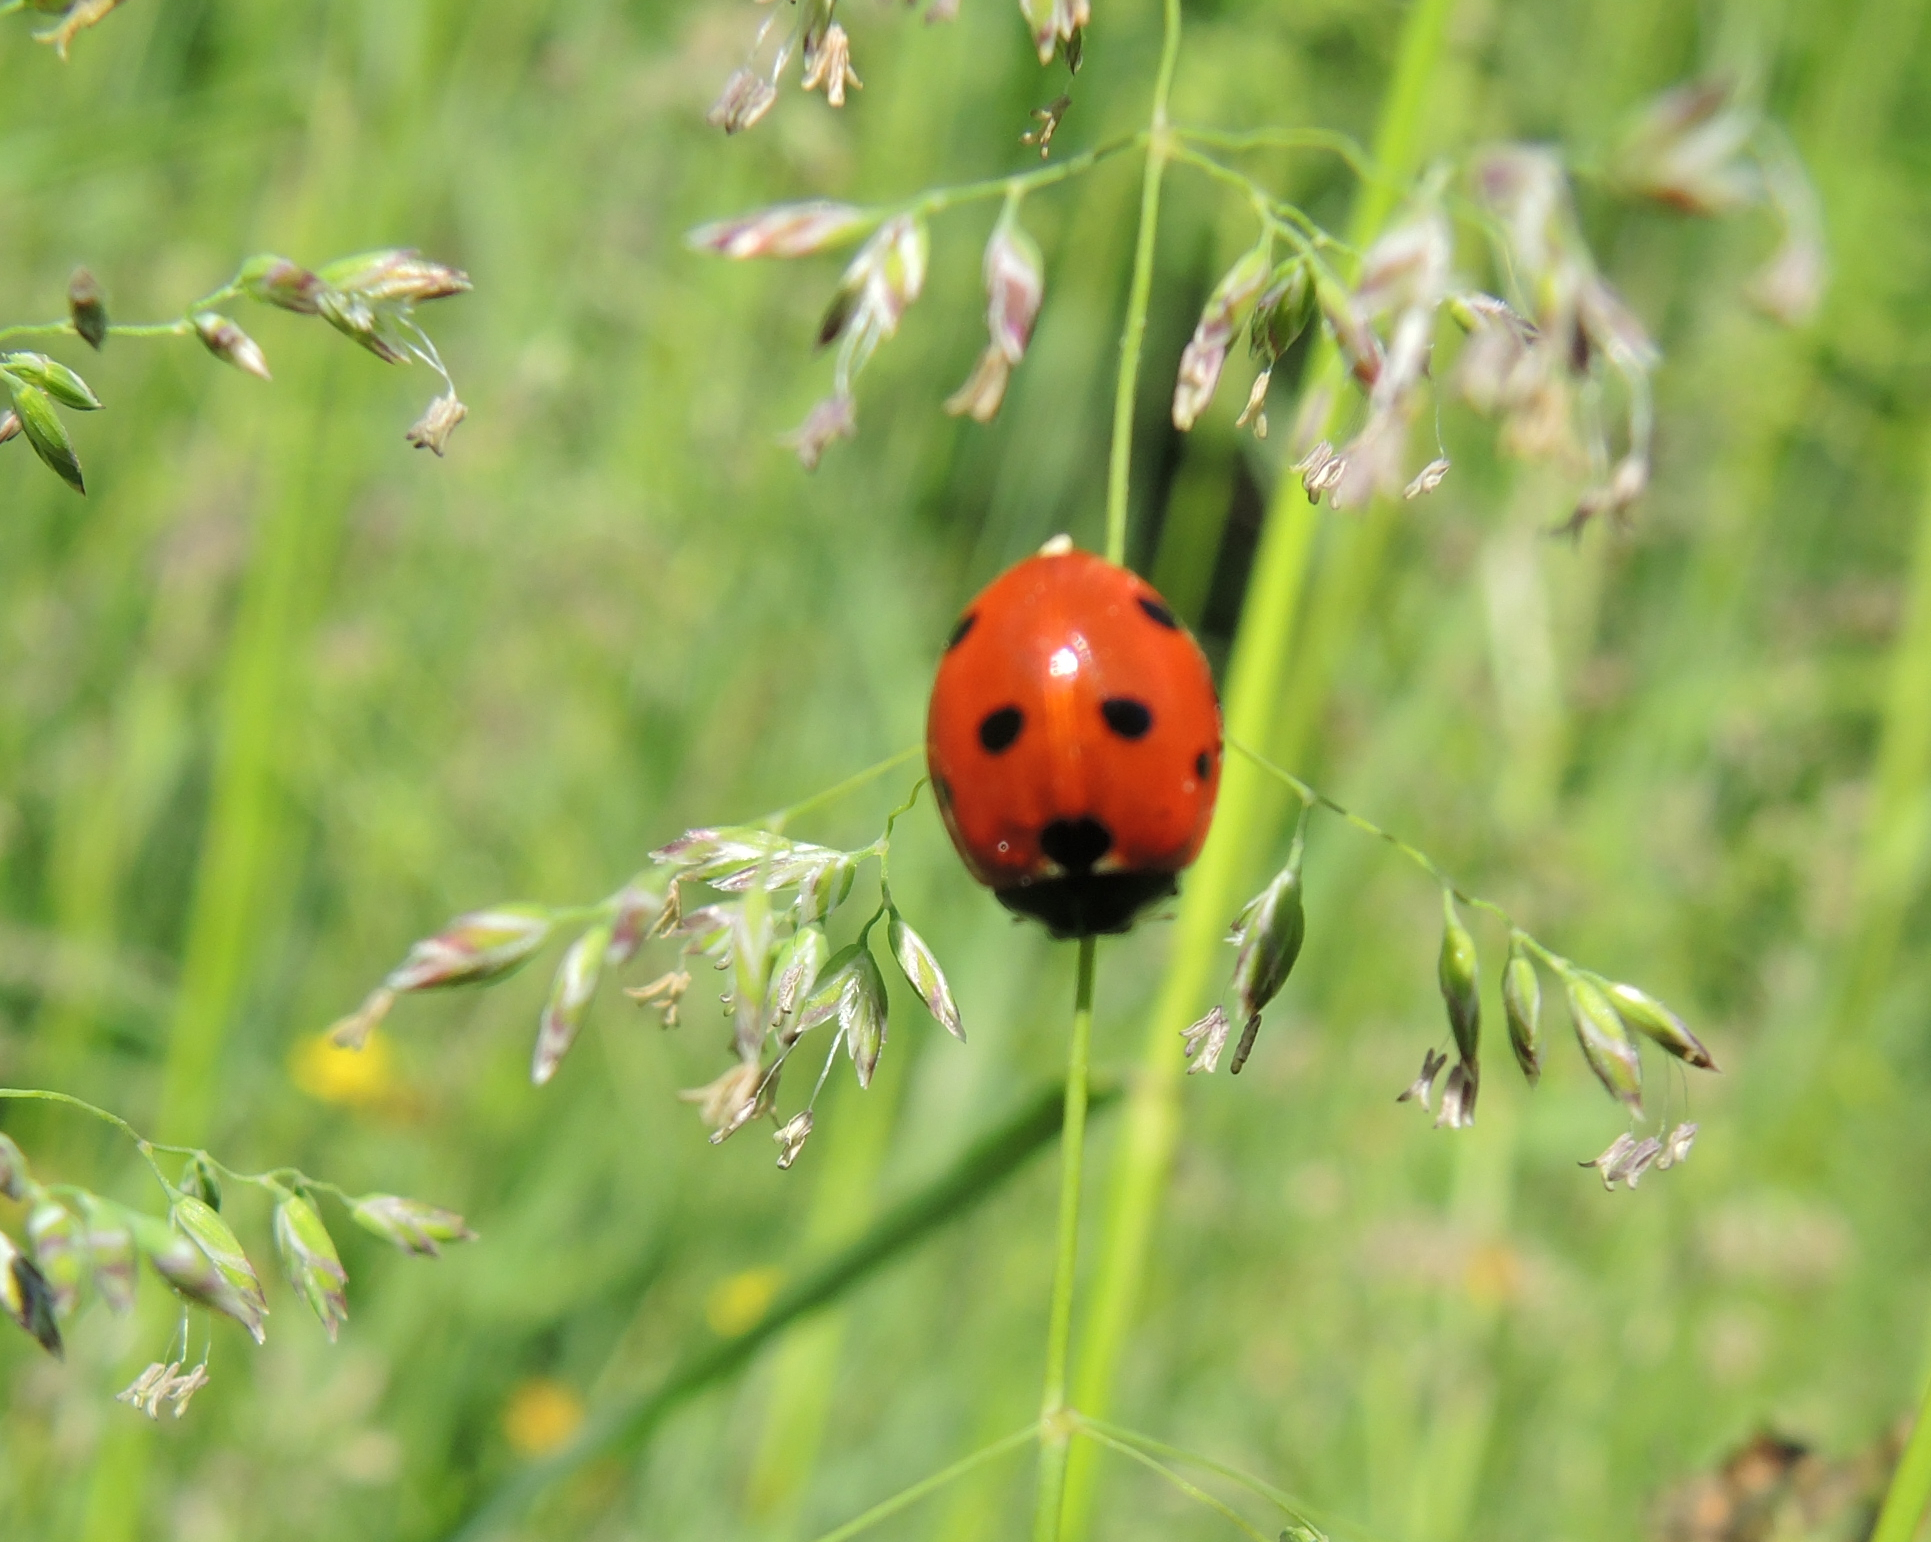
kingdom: Animalia
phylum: Arthropoda
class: Insecta
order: Coleoptera
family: Coccinellidae
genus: Coccinella
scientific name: Coccinella septempunctata
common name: Sevenspotted lady beetle
